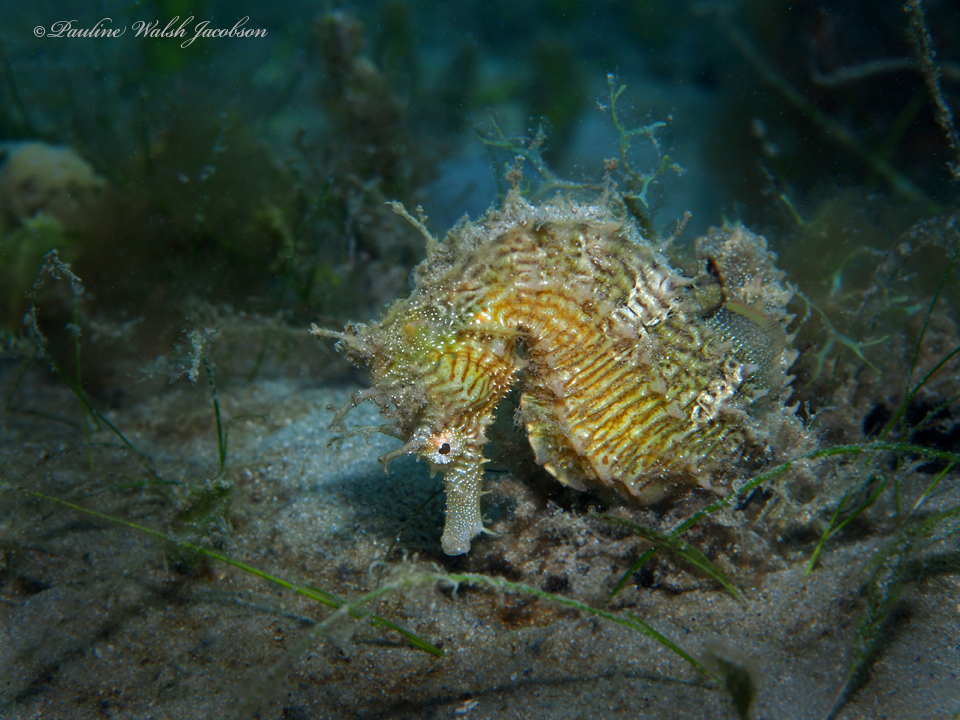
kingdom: Animalia
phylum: Chordata
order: Syngnathiformes
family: Syngnathidae
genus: Hippocampus
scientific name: Hippocampus erectus
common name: Lined seahorse
